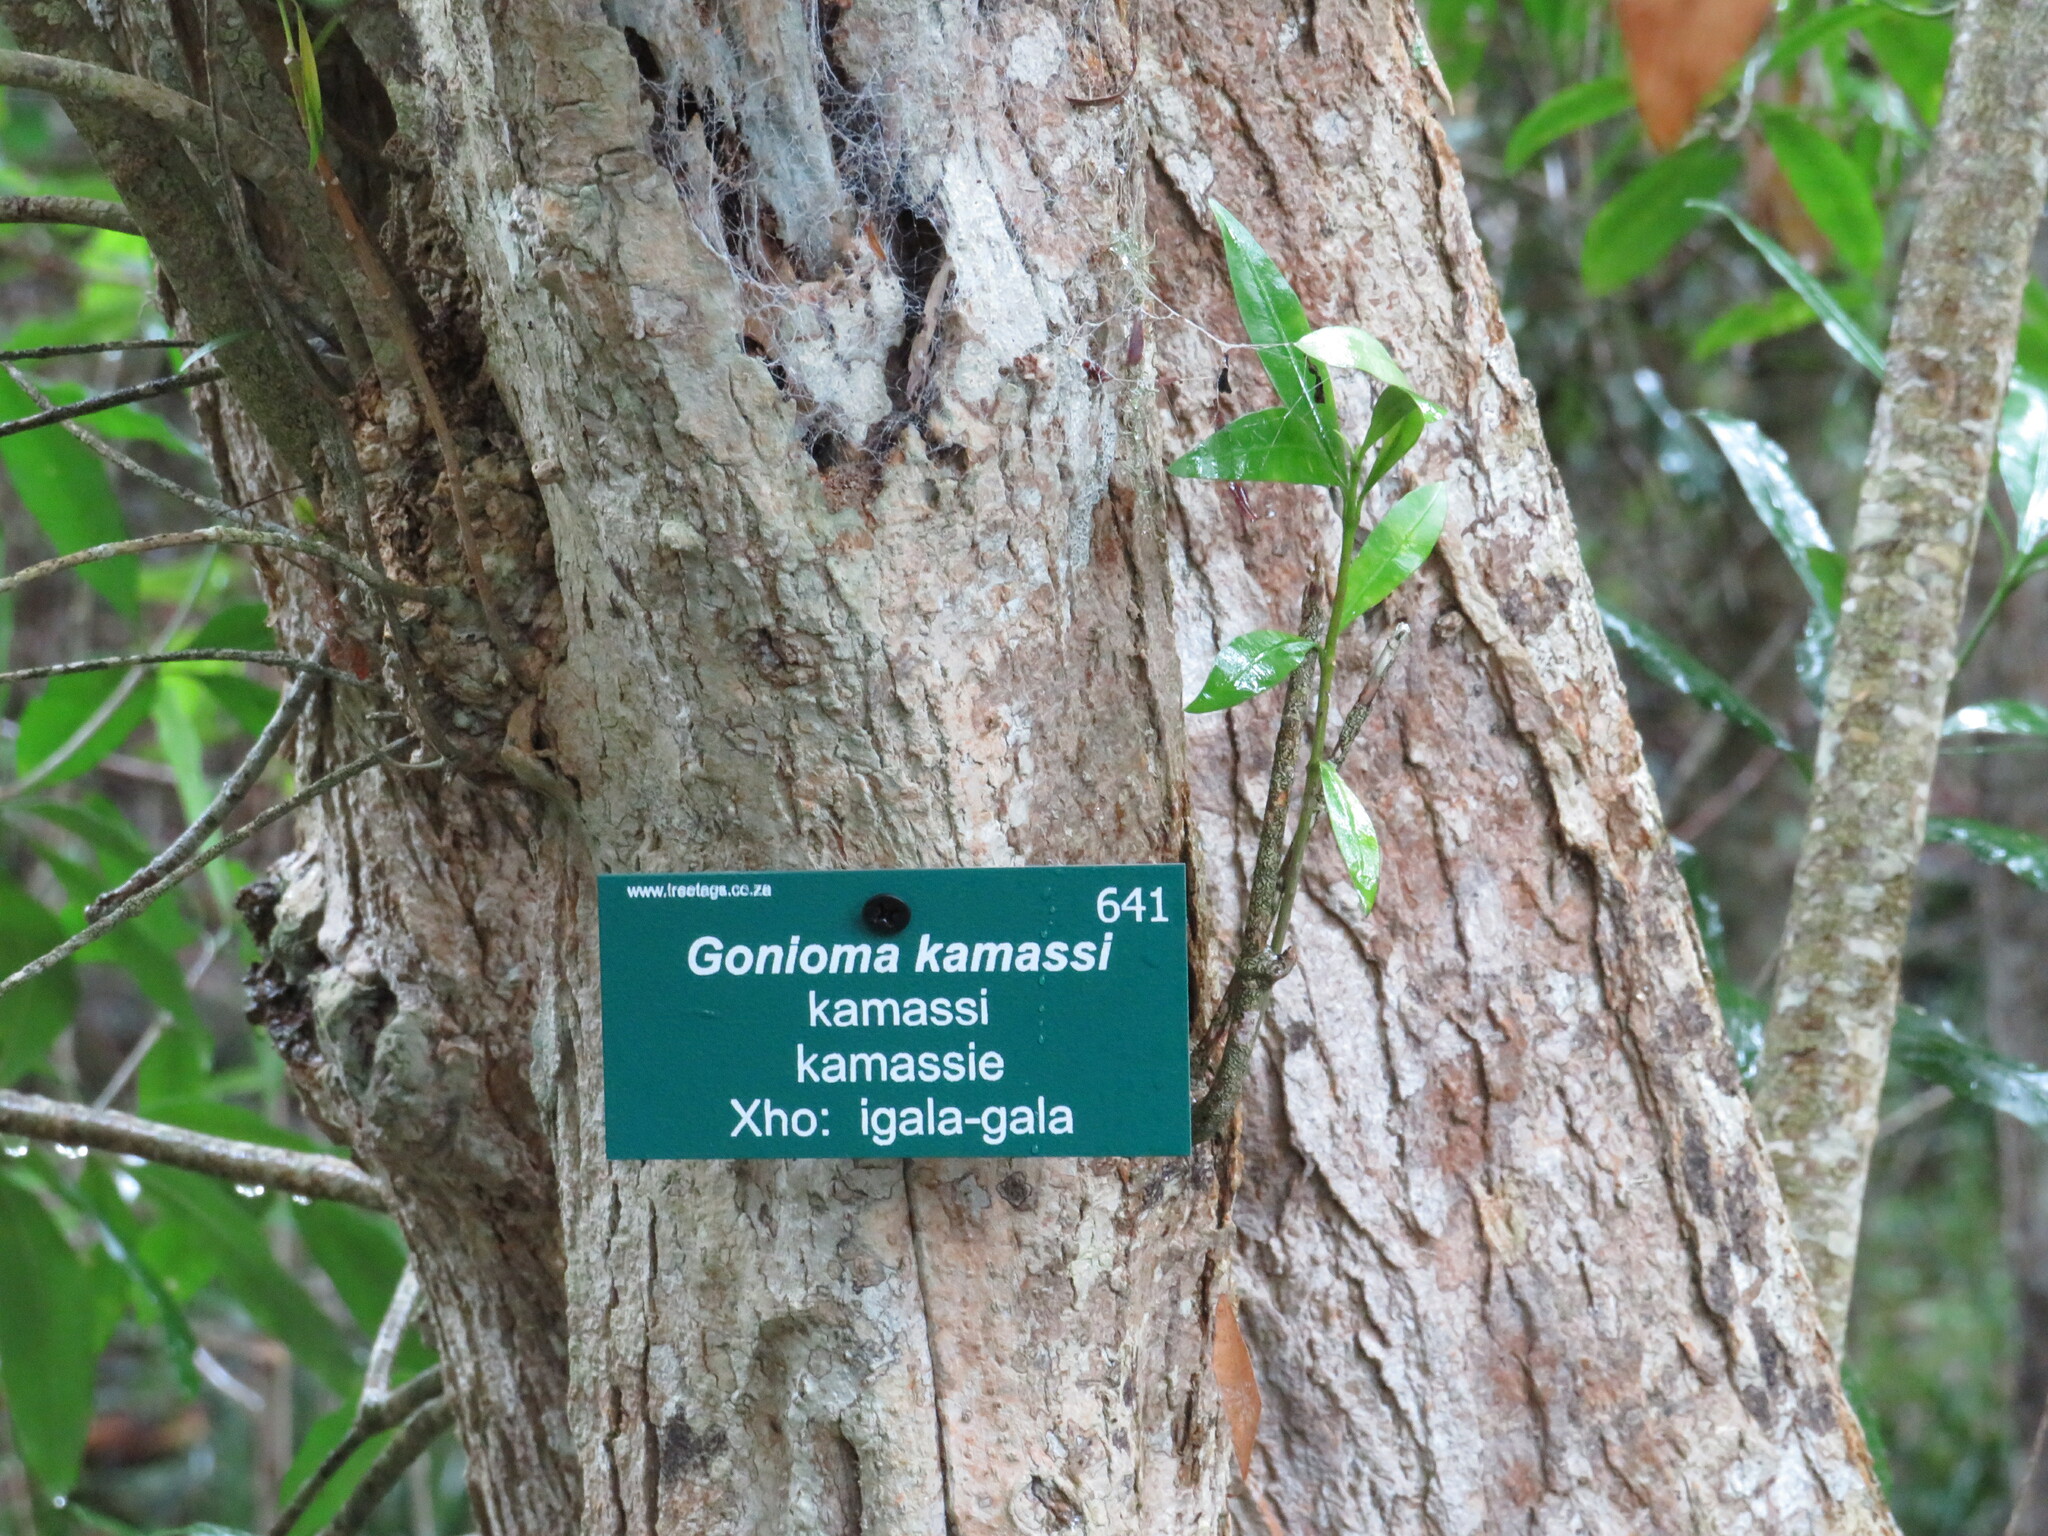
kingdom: Plantae
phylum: Tracheophyta
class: Magnoliopsida
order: Gentianales
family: Apocynaceae
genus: Gonioma
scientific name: Gonioma kamassi
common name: Kamassi
